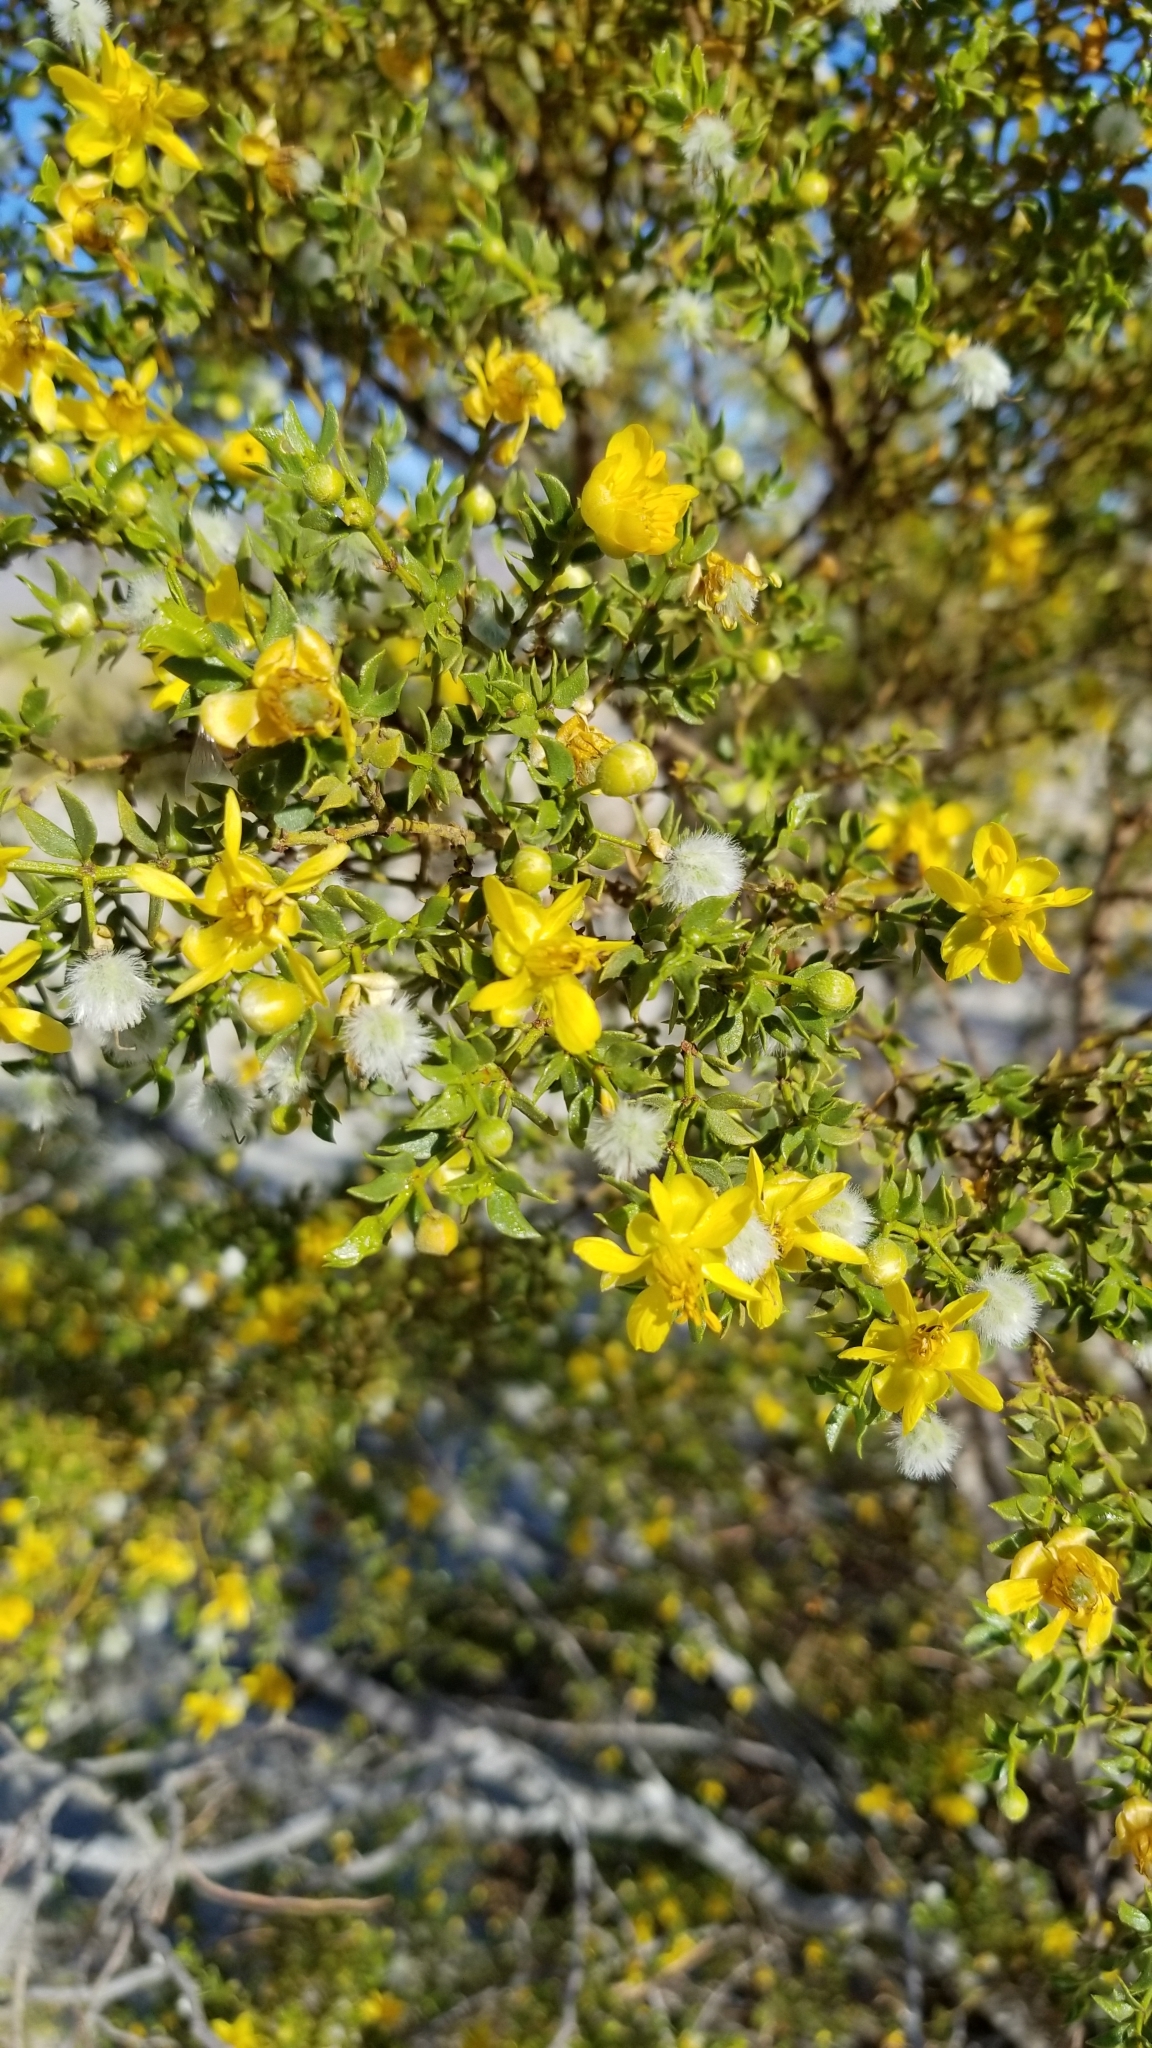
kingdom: Plantae
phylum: Tracheophyta
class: Magnoliopsida
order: Zygophyllales
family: Zygophyllaceae
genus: Larrea
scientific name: Larrea tridentata
